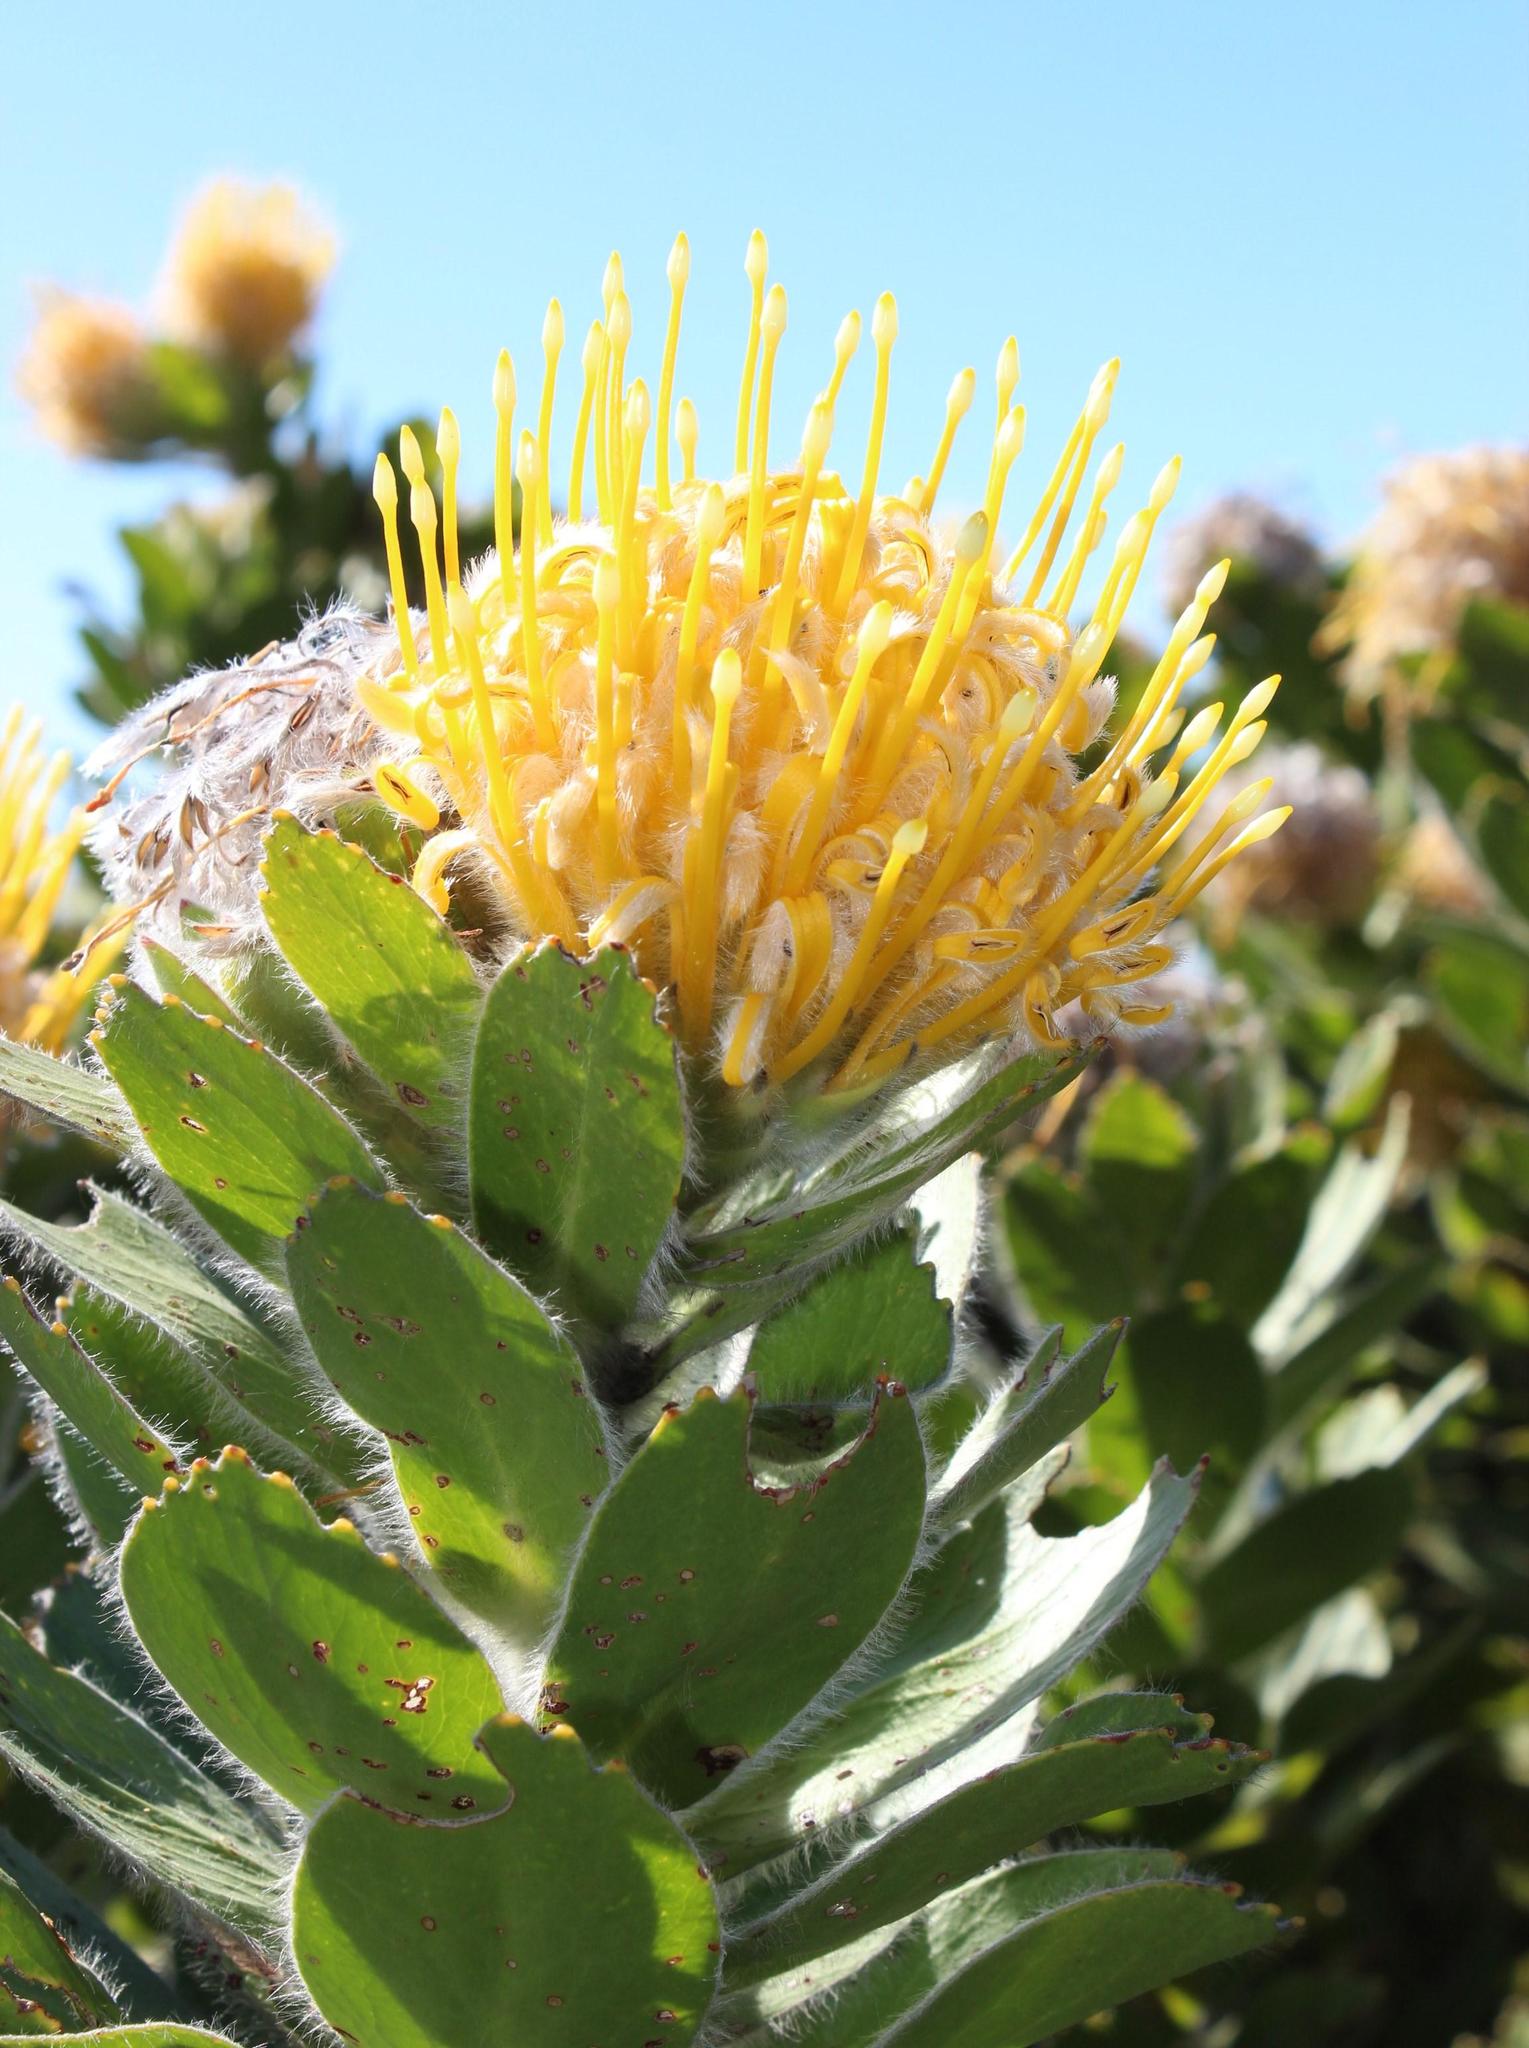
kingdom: Plantae
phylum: Tracheophyta
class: Magnoliopsida
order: Proteales
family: Proteaceae
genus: Leucospermum
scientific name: Leucospermum conocarpodendron
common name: Tree pincushion
